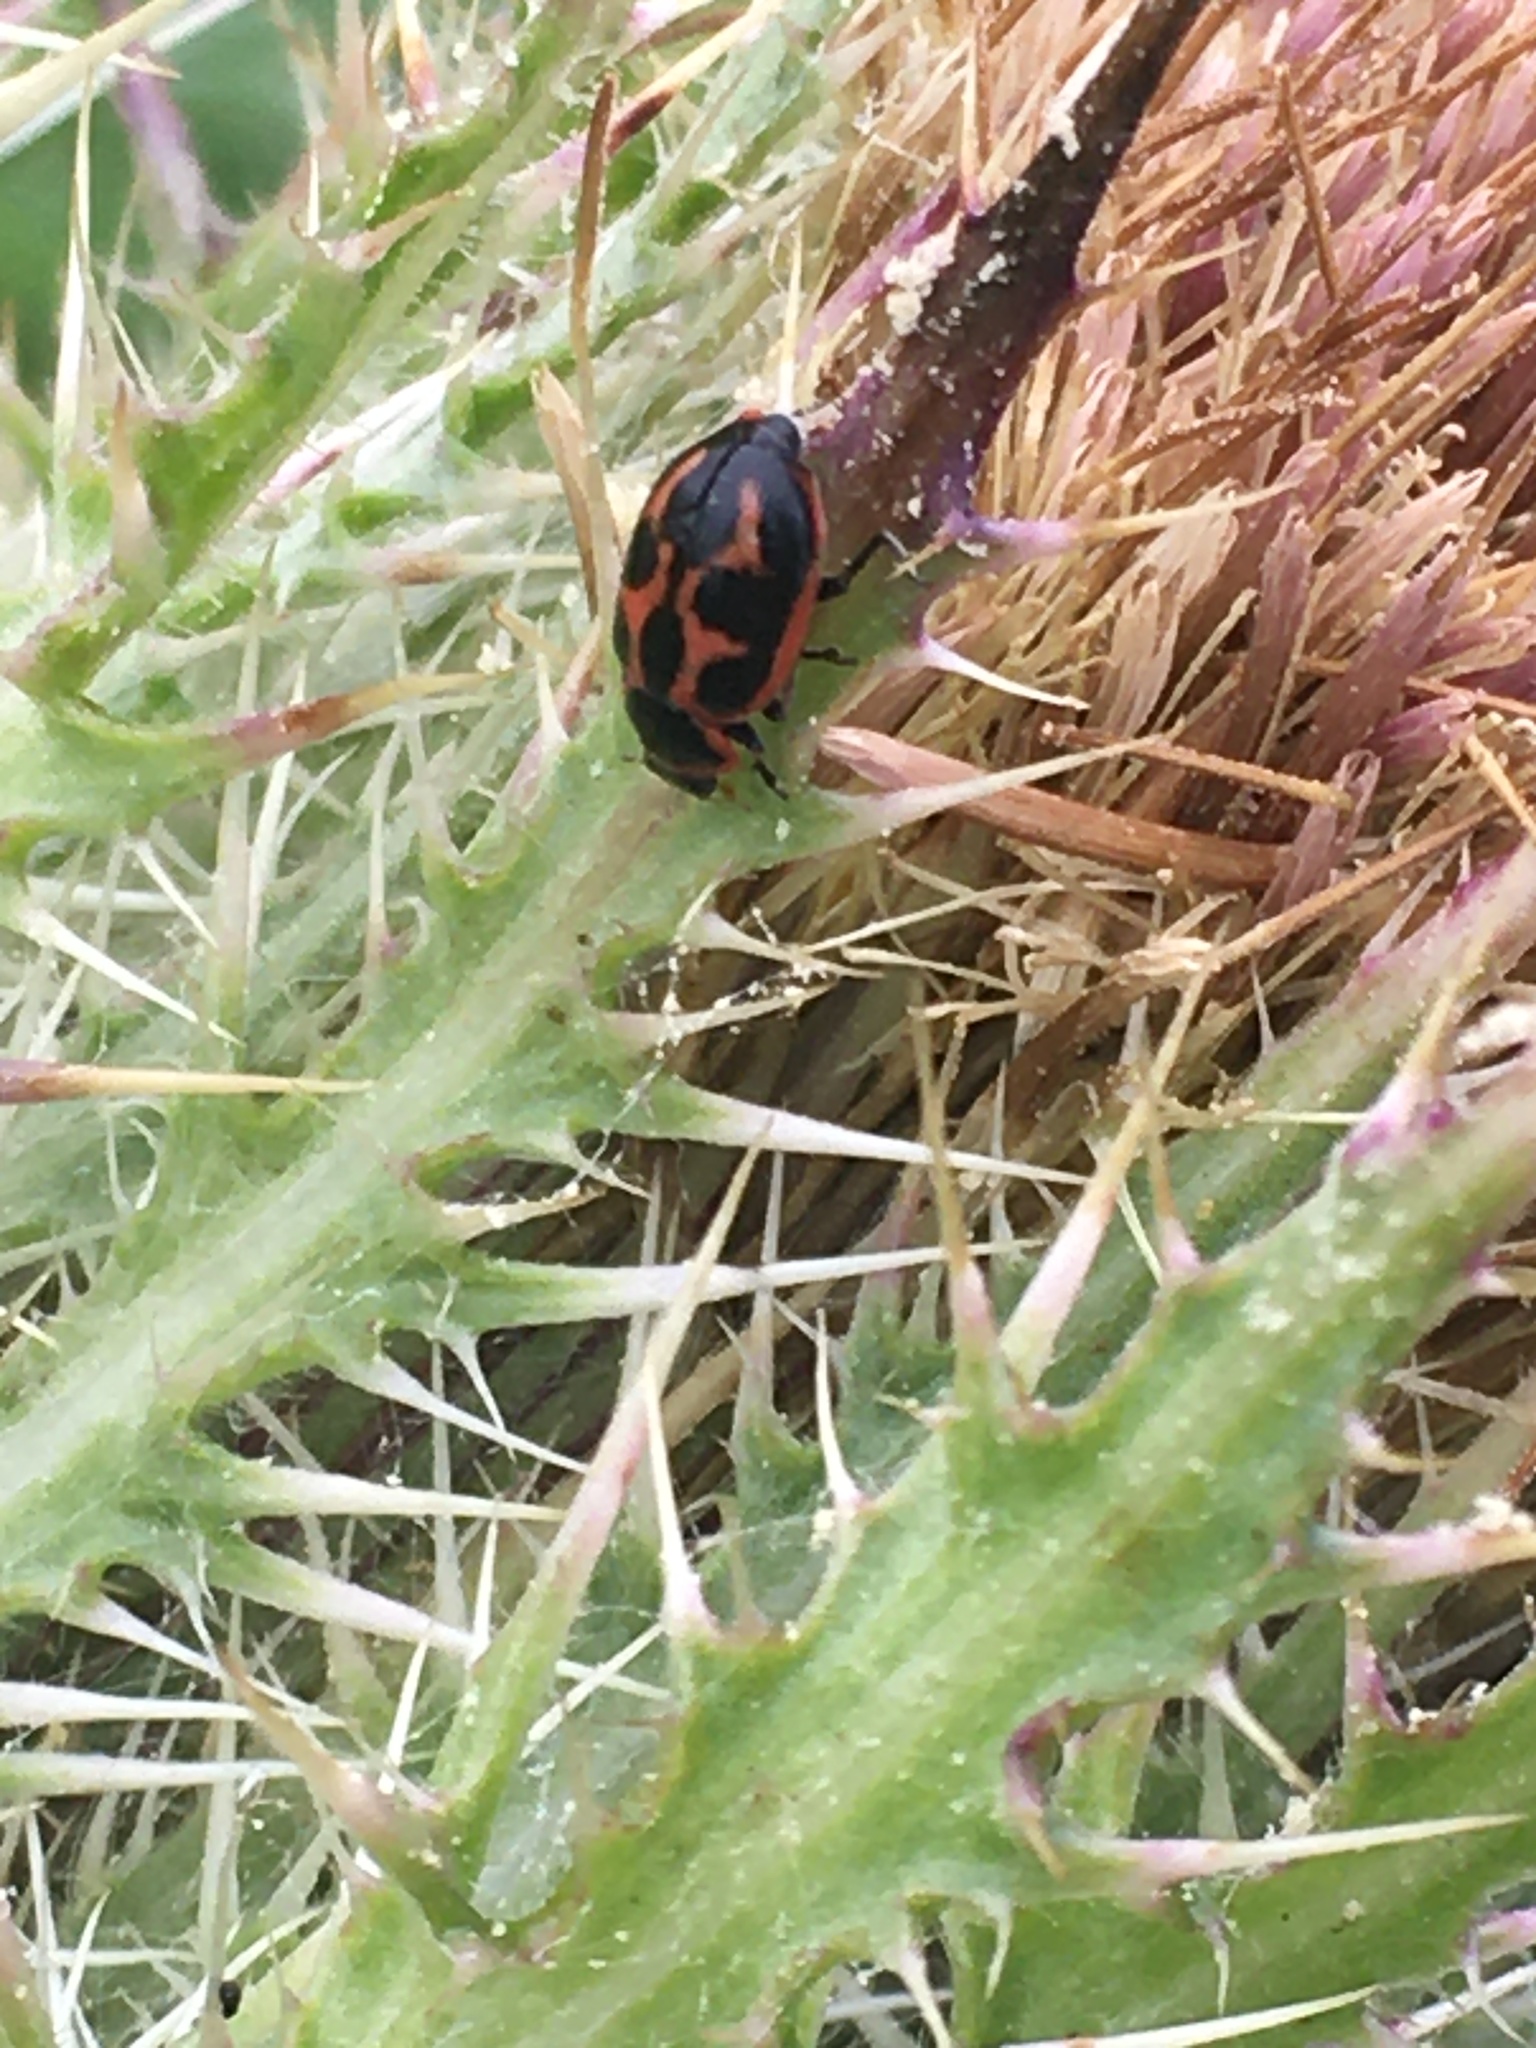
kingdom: Animalia
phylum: Arthropoda
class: Insecta
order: Coleoptera
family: Coccinellidae
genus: Naemia
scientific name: Naemia seriata
